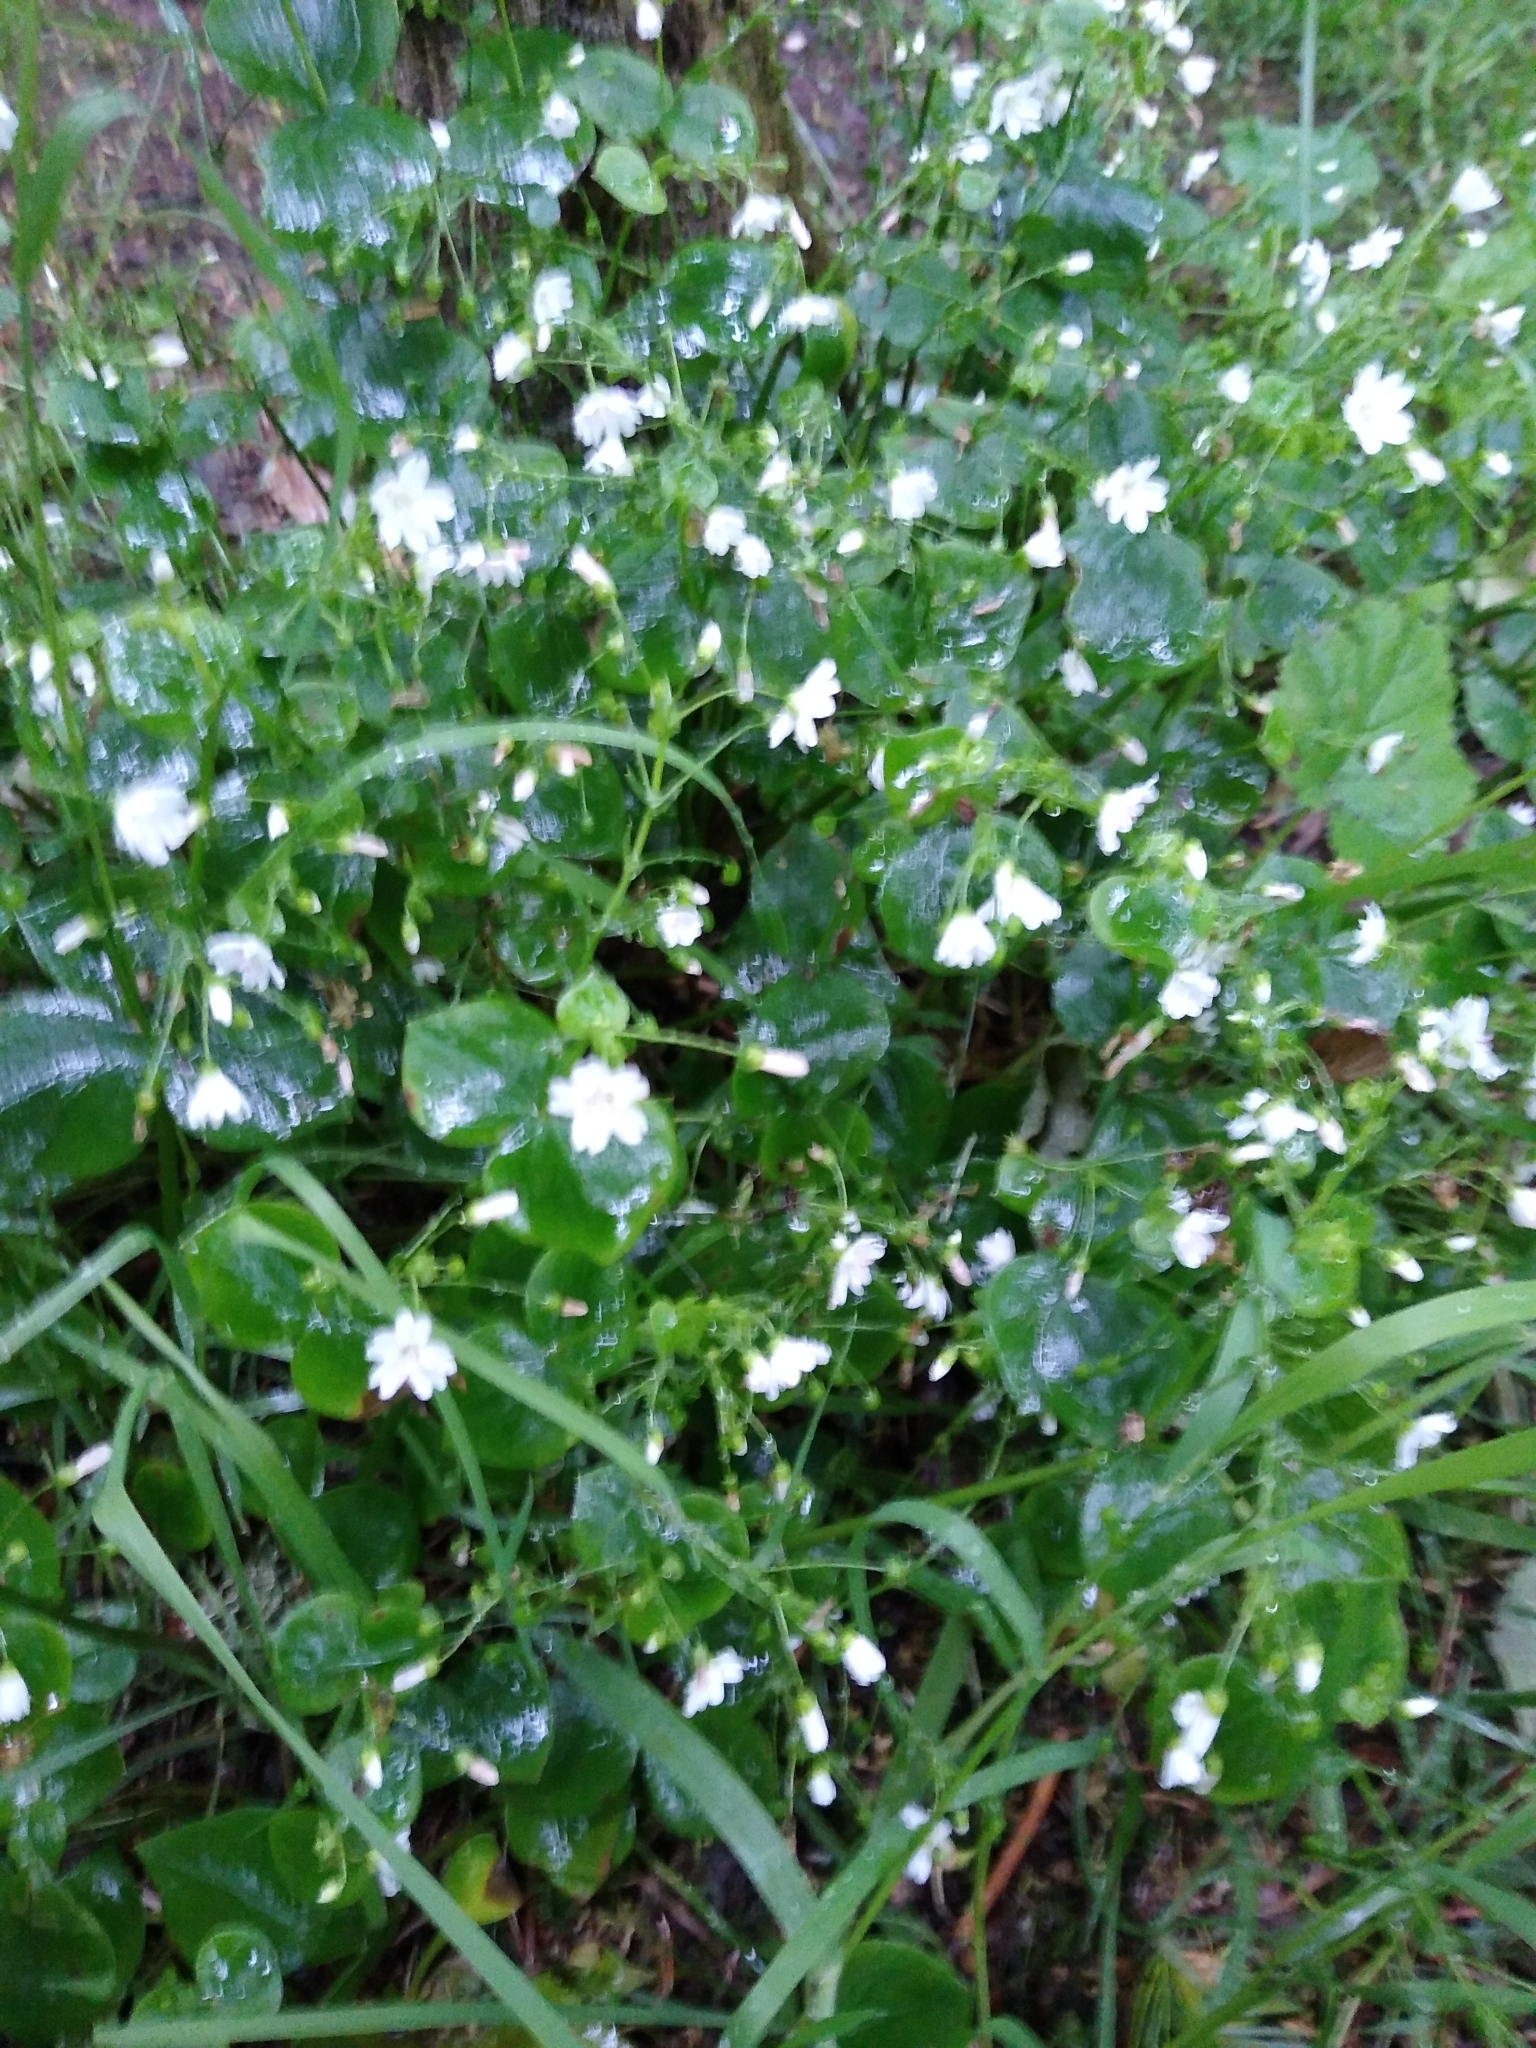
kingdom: Plantae
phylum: Tracheophyta
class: Magnoliopsida
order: Caryophyllales
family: Montiaceae
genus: Claytonia
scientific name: Claytonia sibirica
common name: Pink purslane
